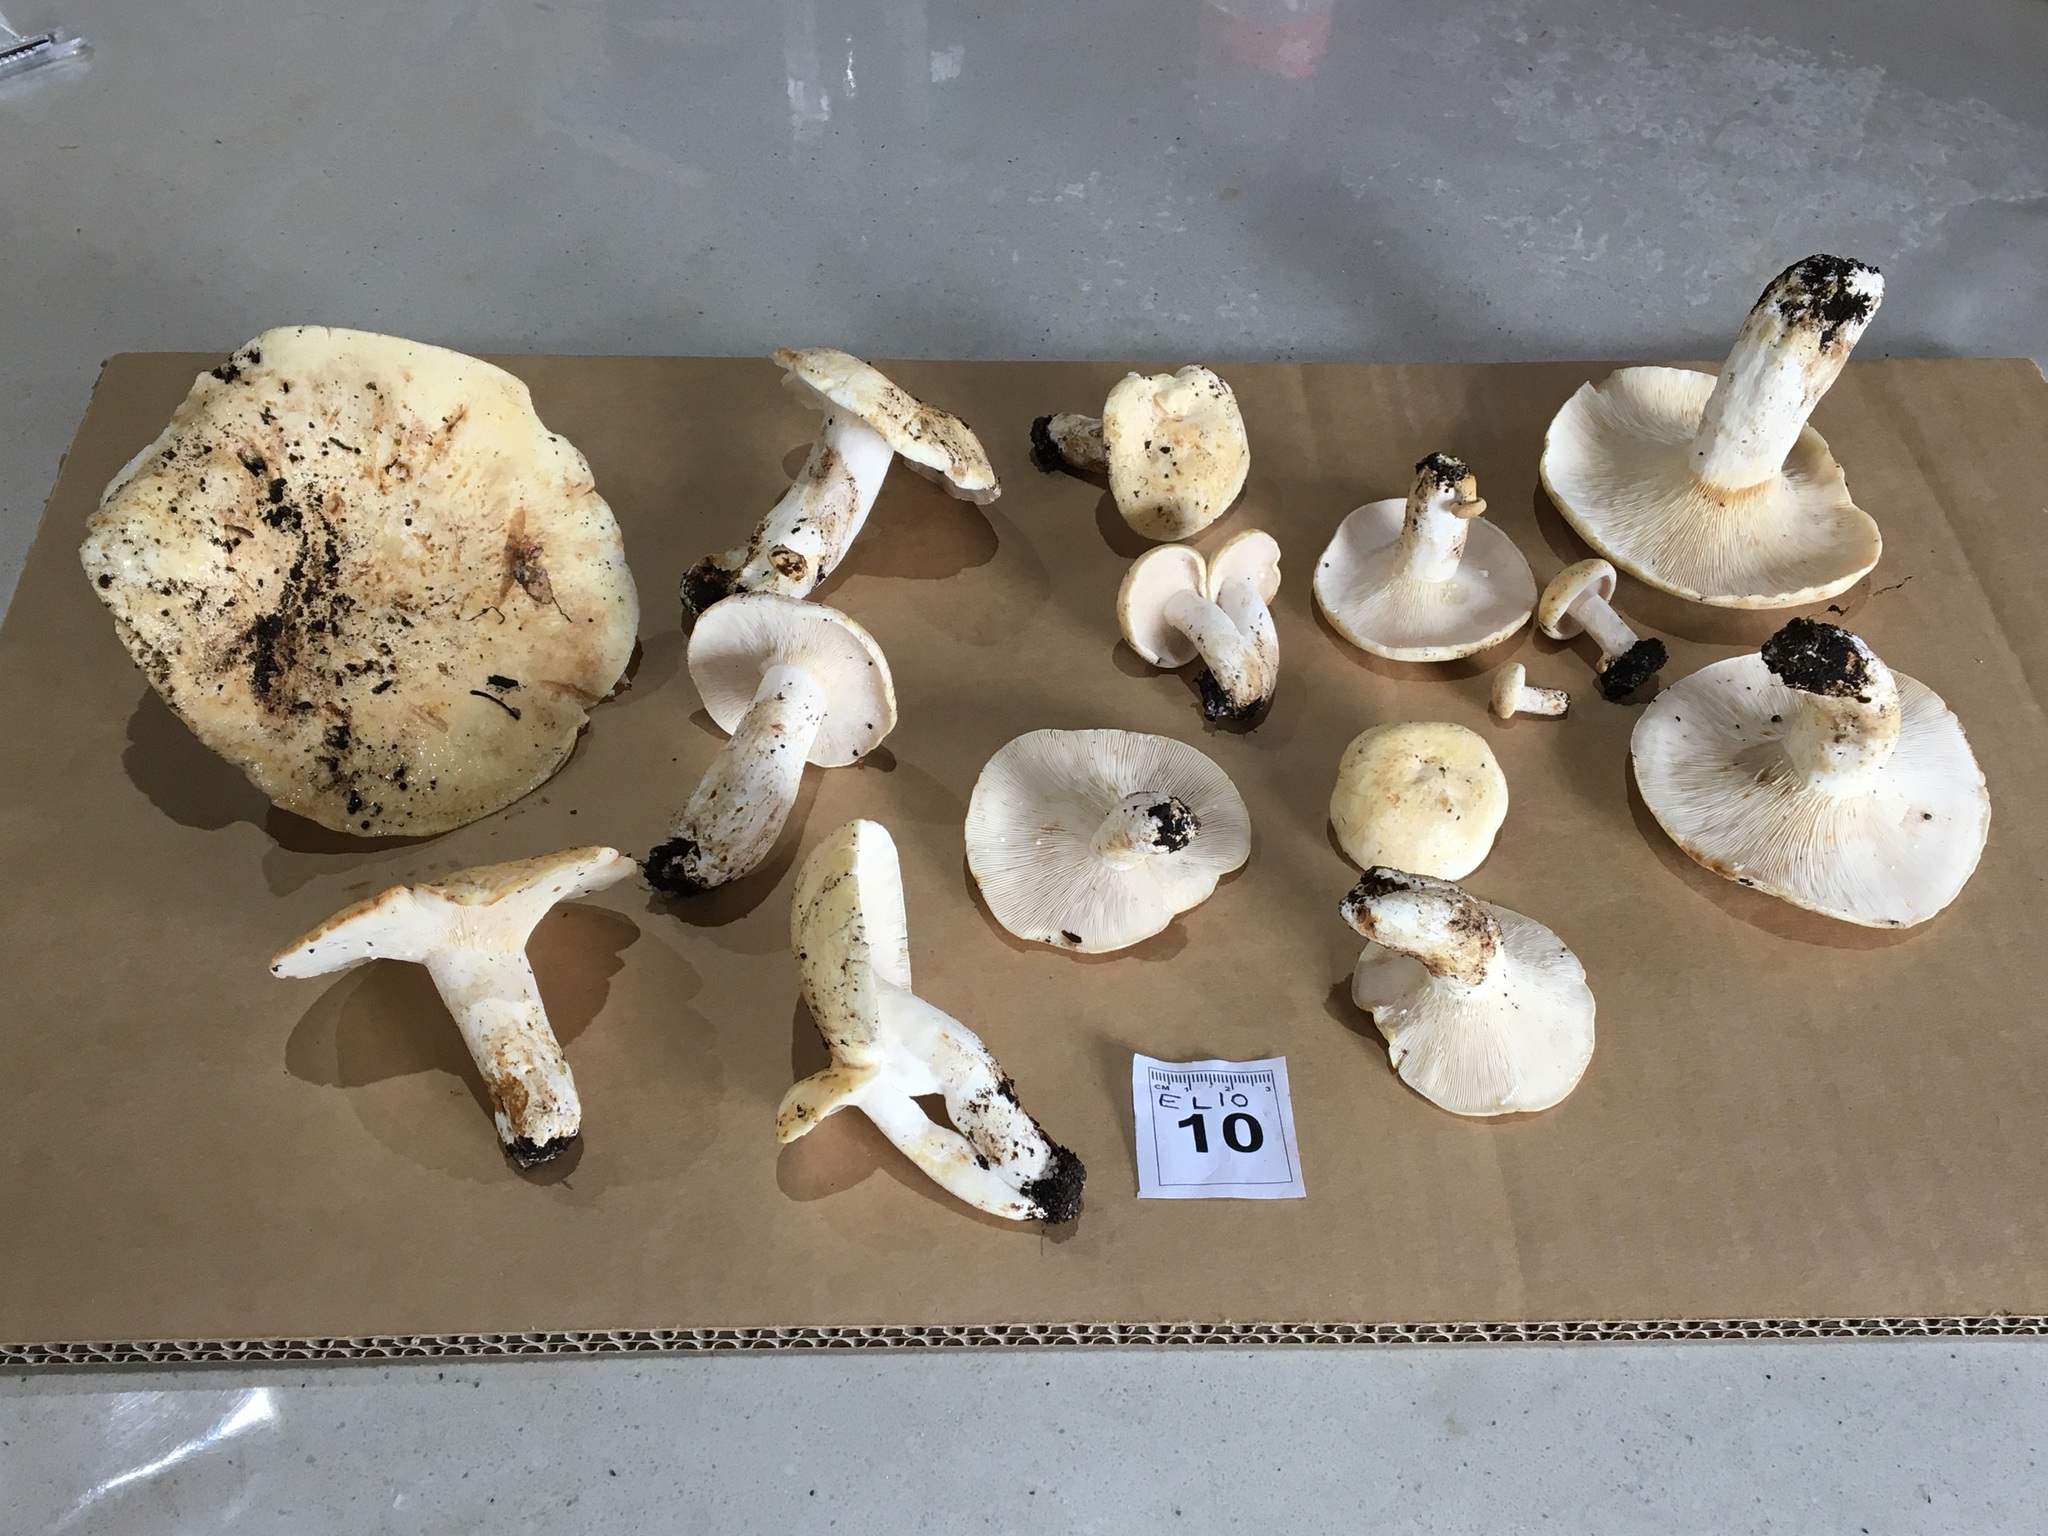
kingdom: Fungi
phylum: Basidiomycota
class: Agaricomycetes
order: Russulales
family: Russulaceae
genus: Lactifluus
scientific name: Lactifluus albopicrus
